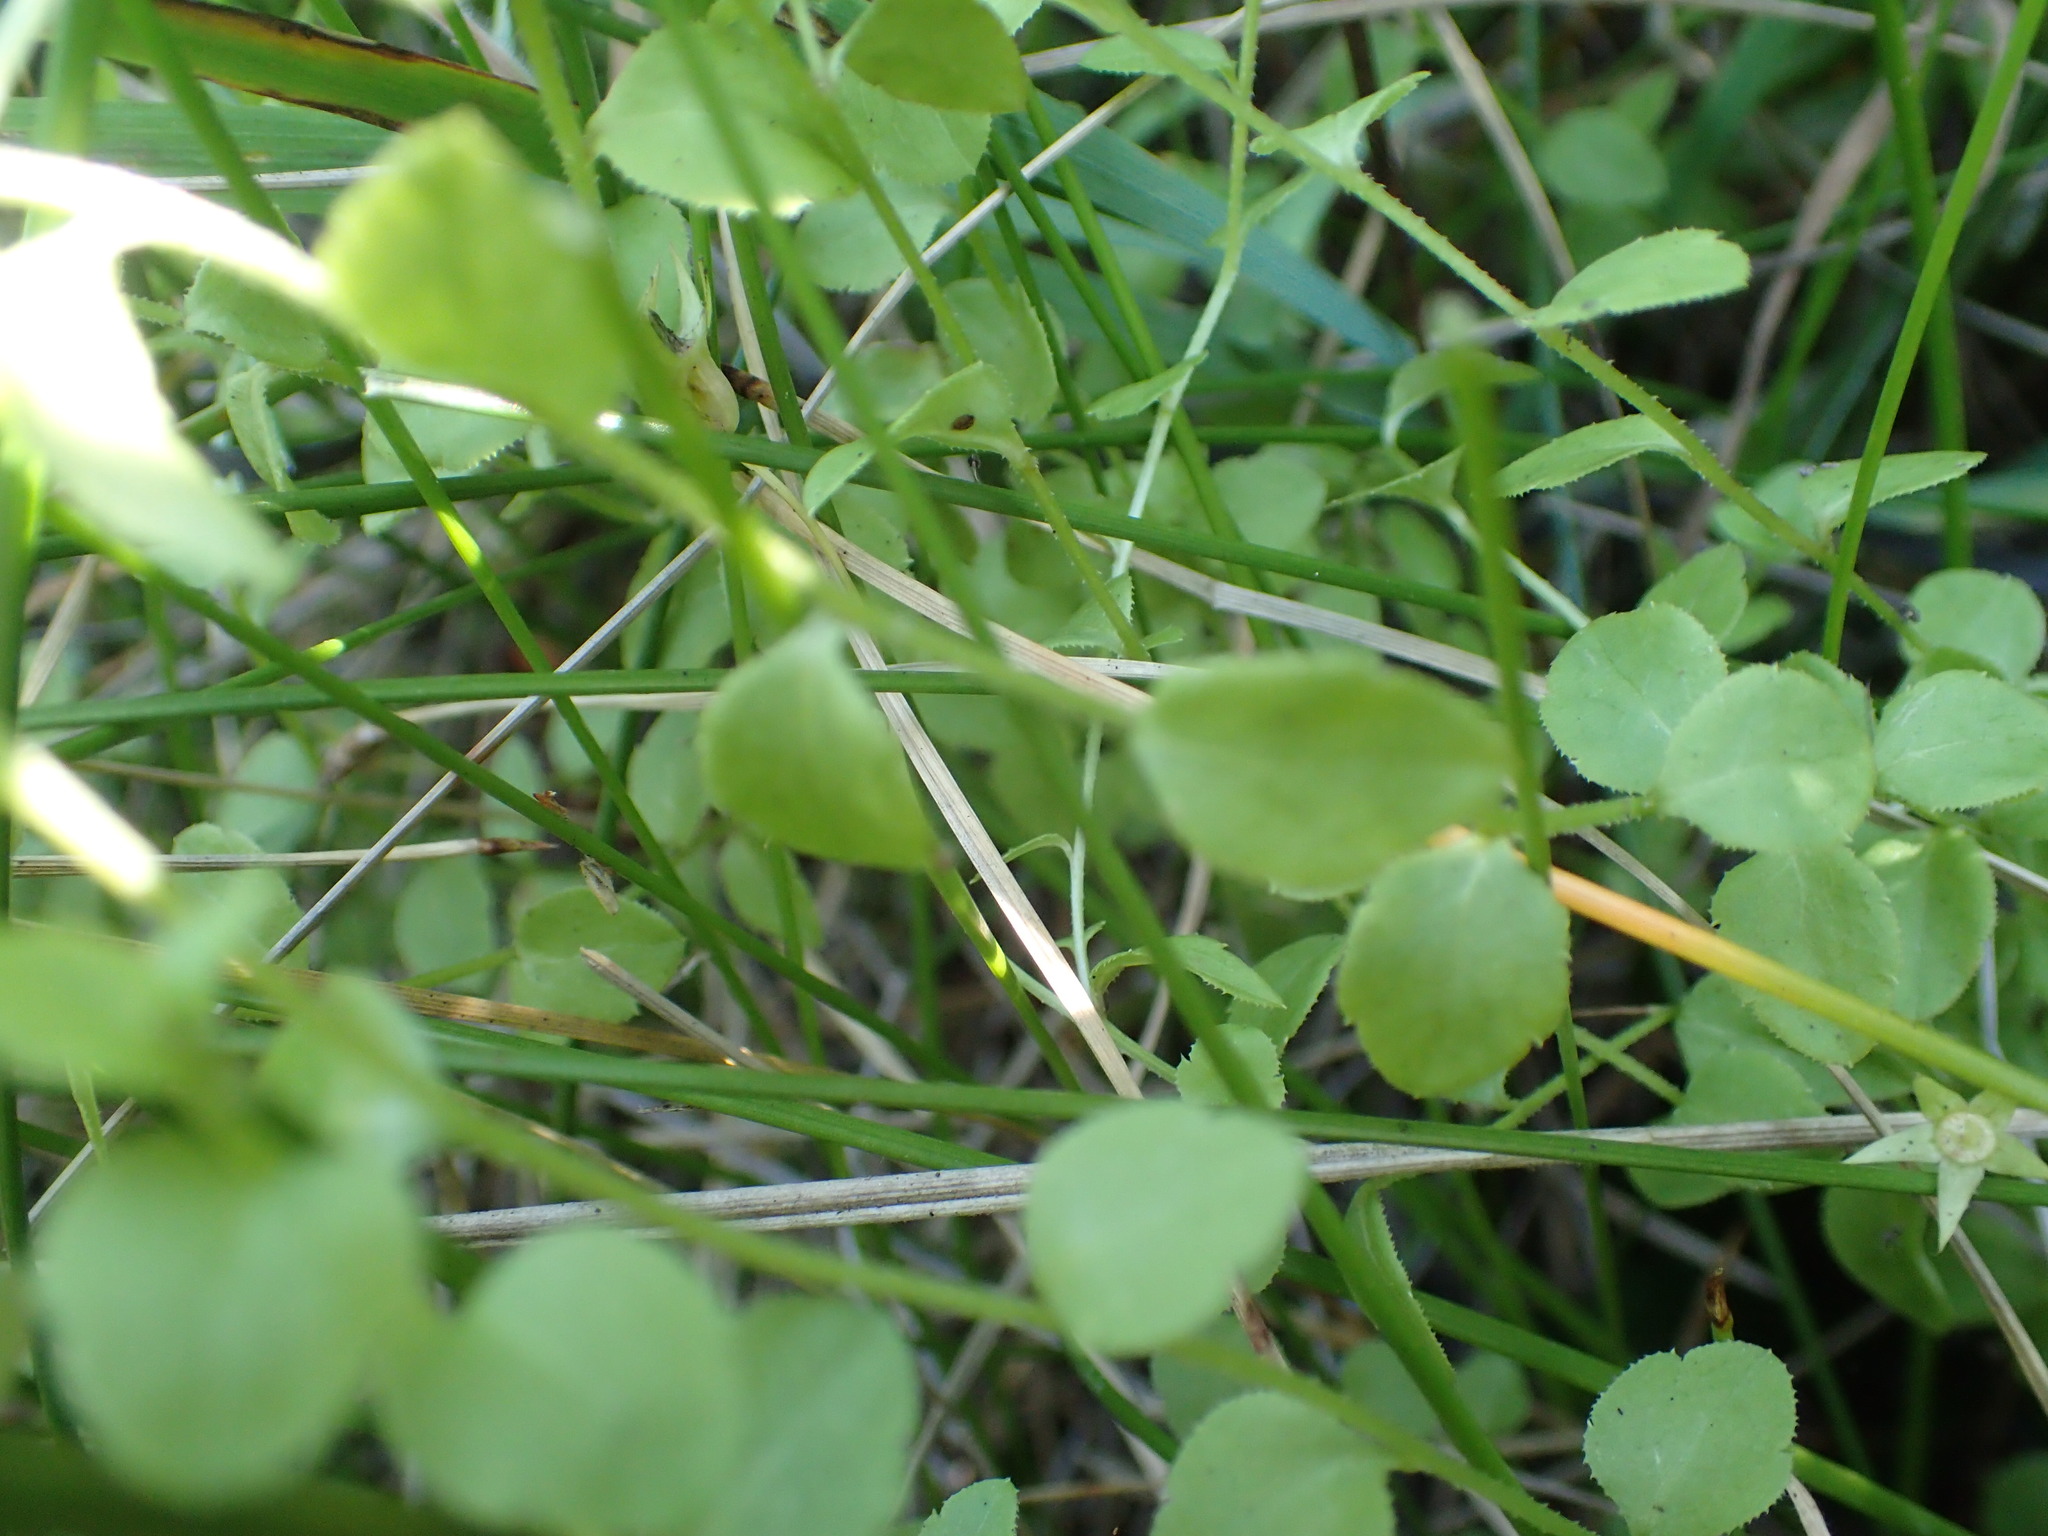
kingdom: Plantae
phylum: Tracheophyta
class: Magnoliopsida
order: Asterales
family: Campanulaceae
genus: Eastwoodiella
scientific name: Eastwoodiella californica
